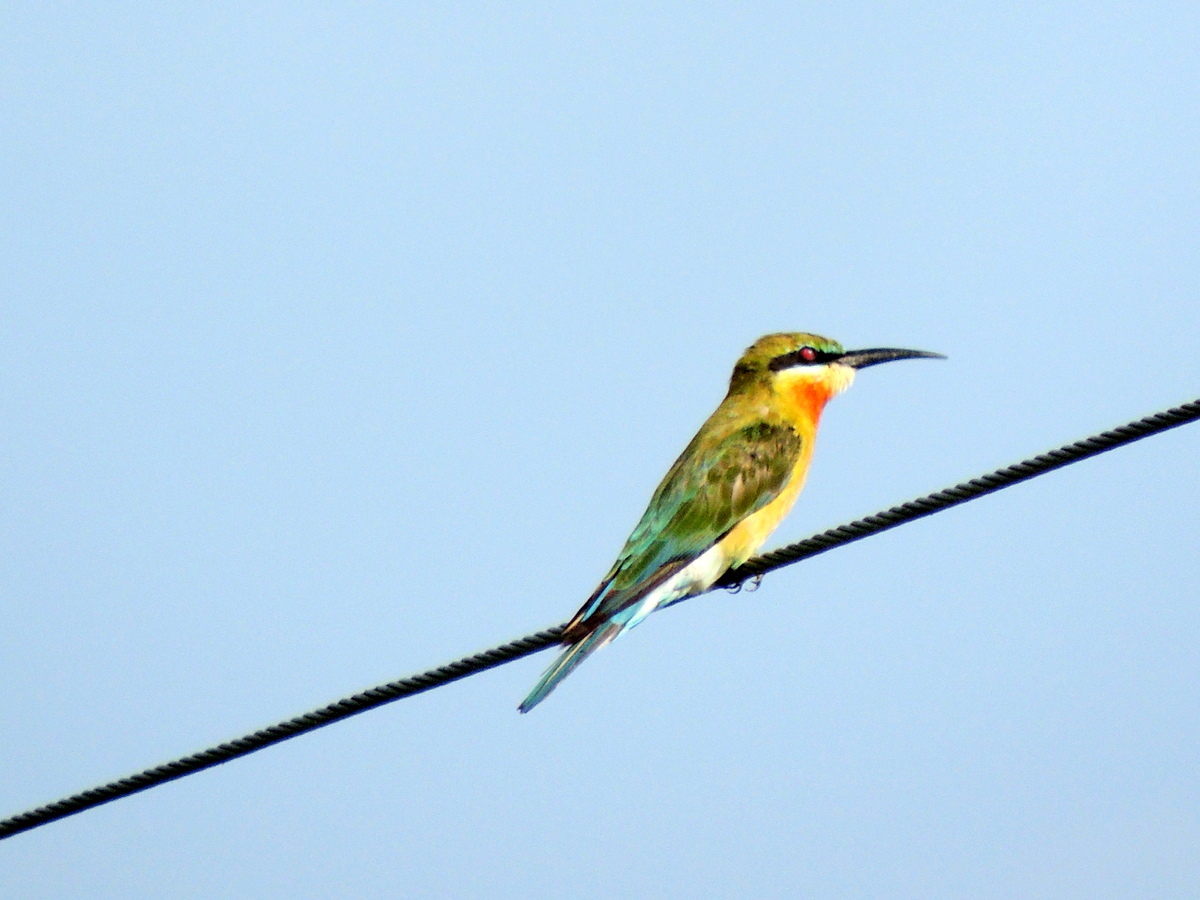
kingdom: Animalia
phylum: Chordata
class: Aves
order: Coraciiformes
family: Meropidae
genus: Merops
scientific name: Merops philippinus
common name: Blue-tailed bee-eater
